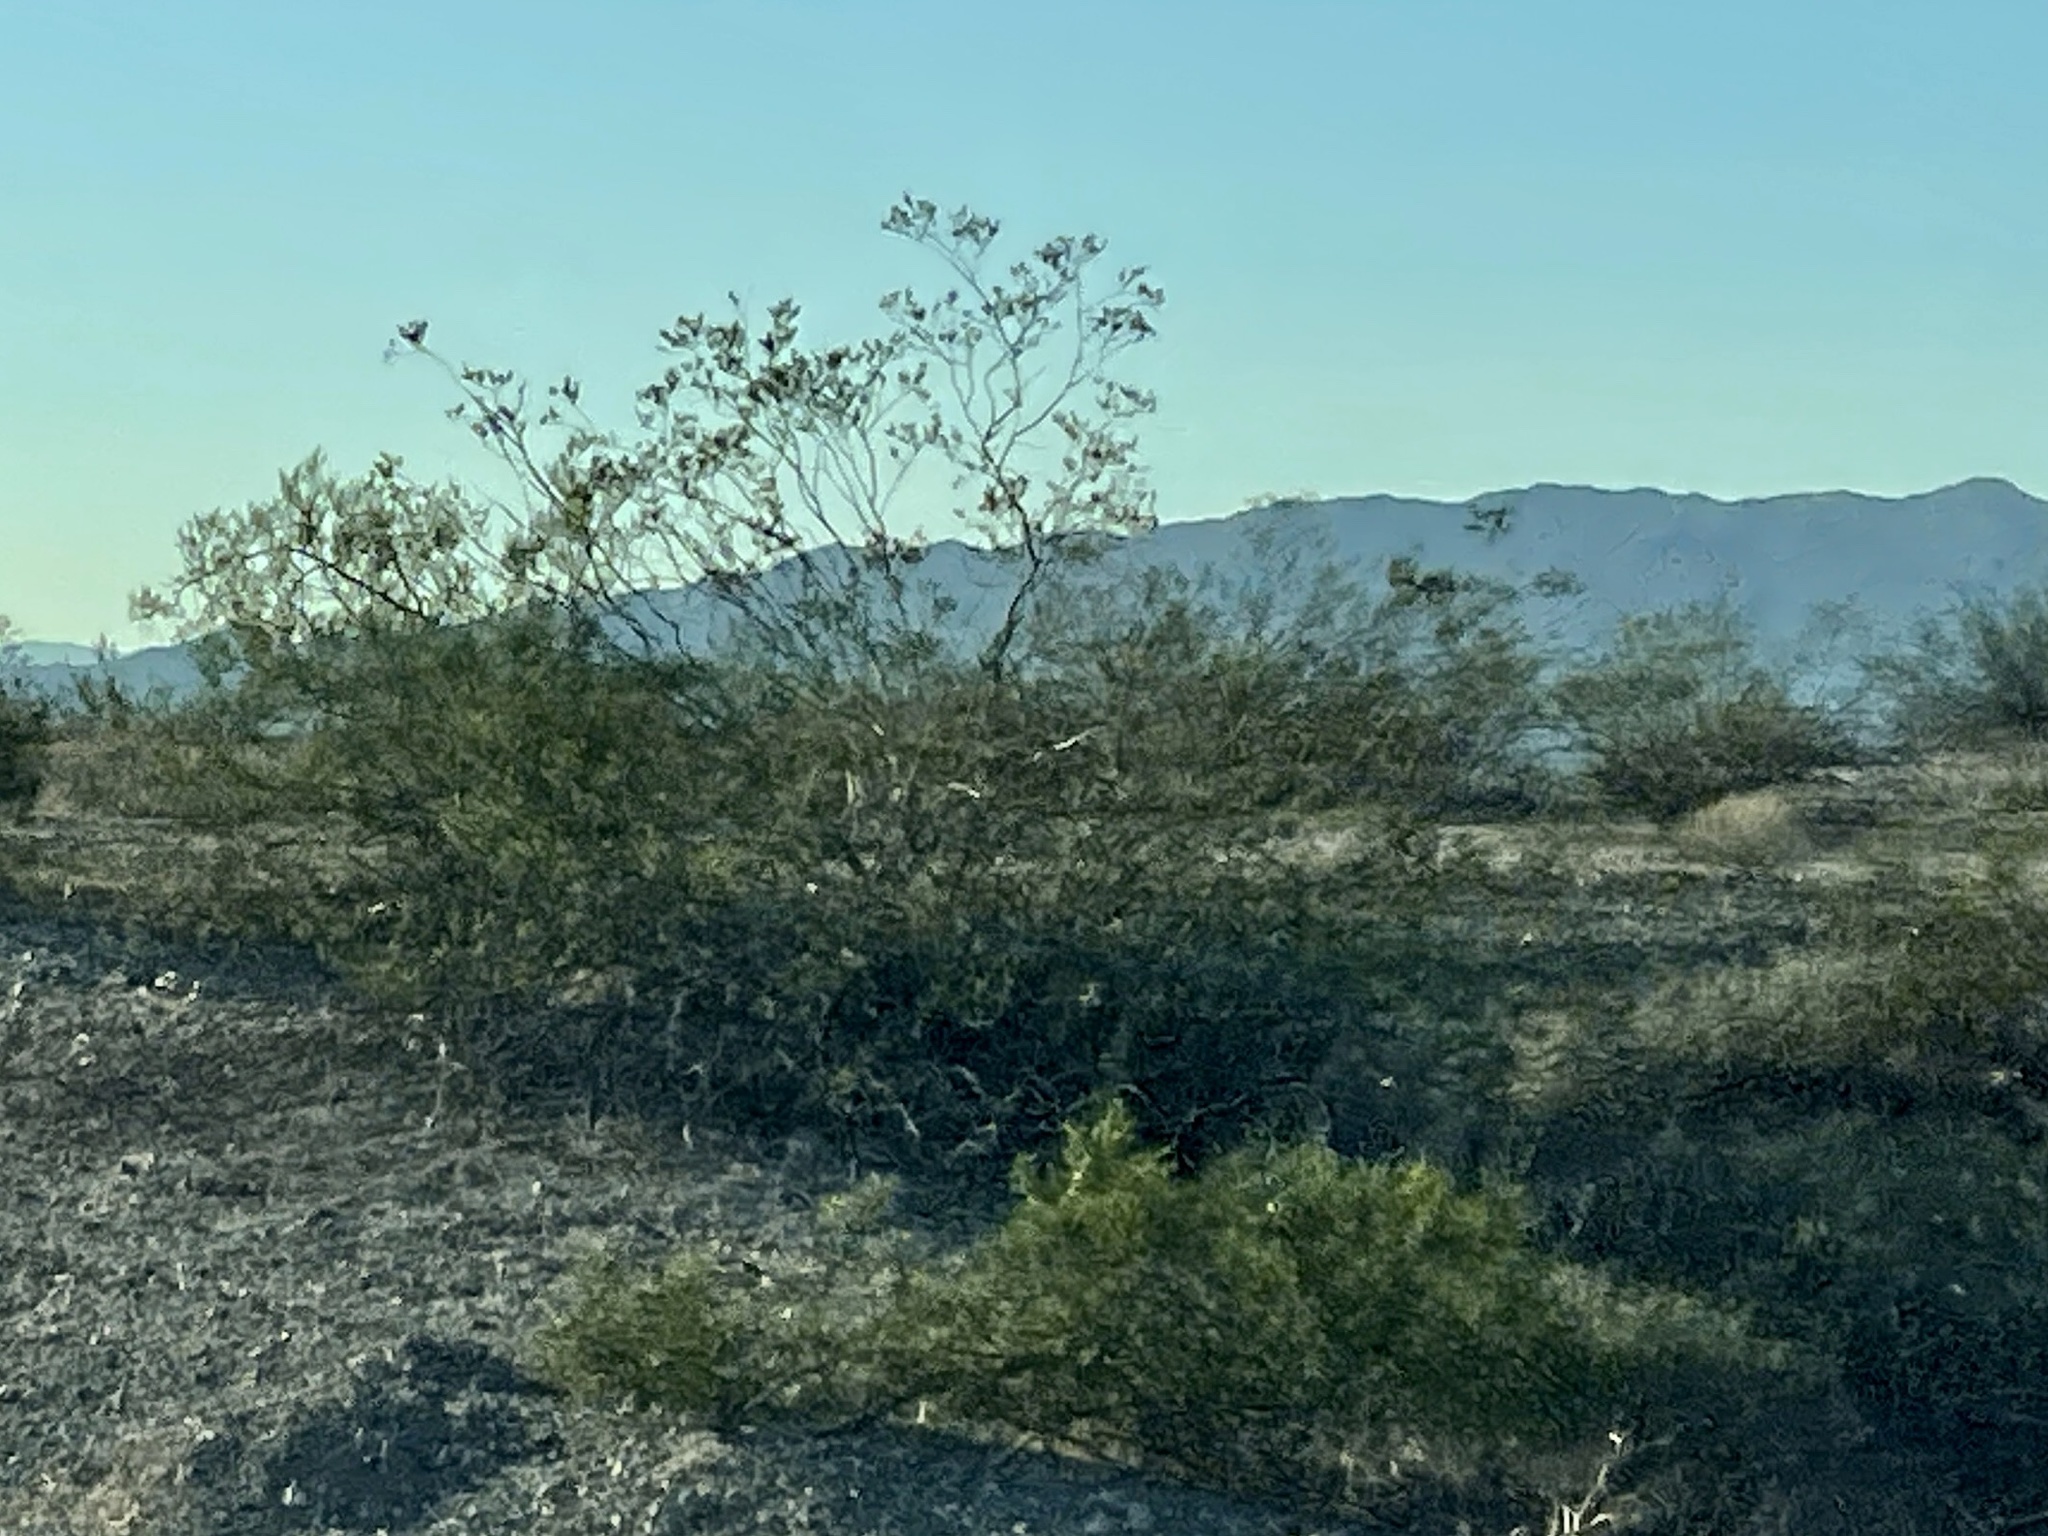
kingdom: Plantae
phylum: Tracheophyta
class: Magnoliopsida
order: Zygophyllales
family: Zygophyllaceae
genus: Larrea
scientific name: Larrea tridentata
